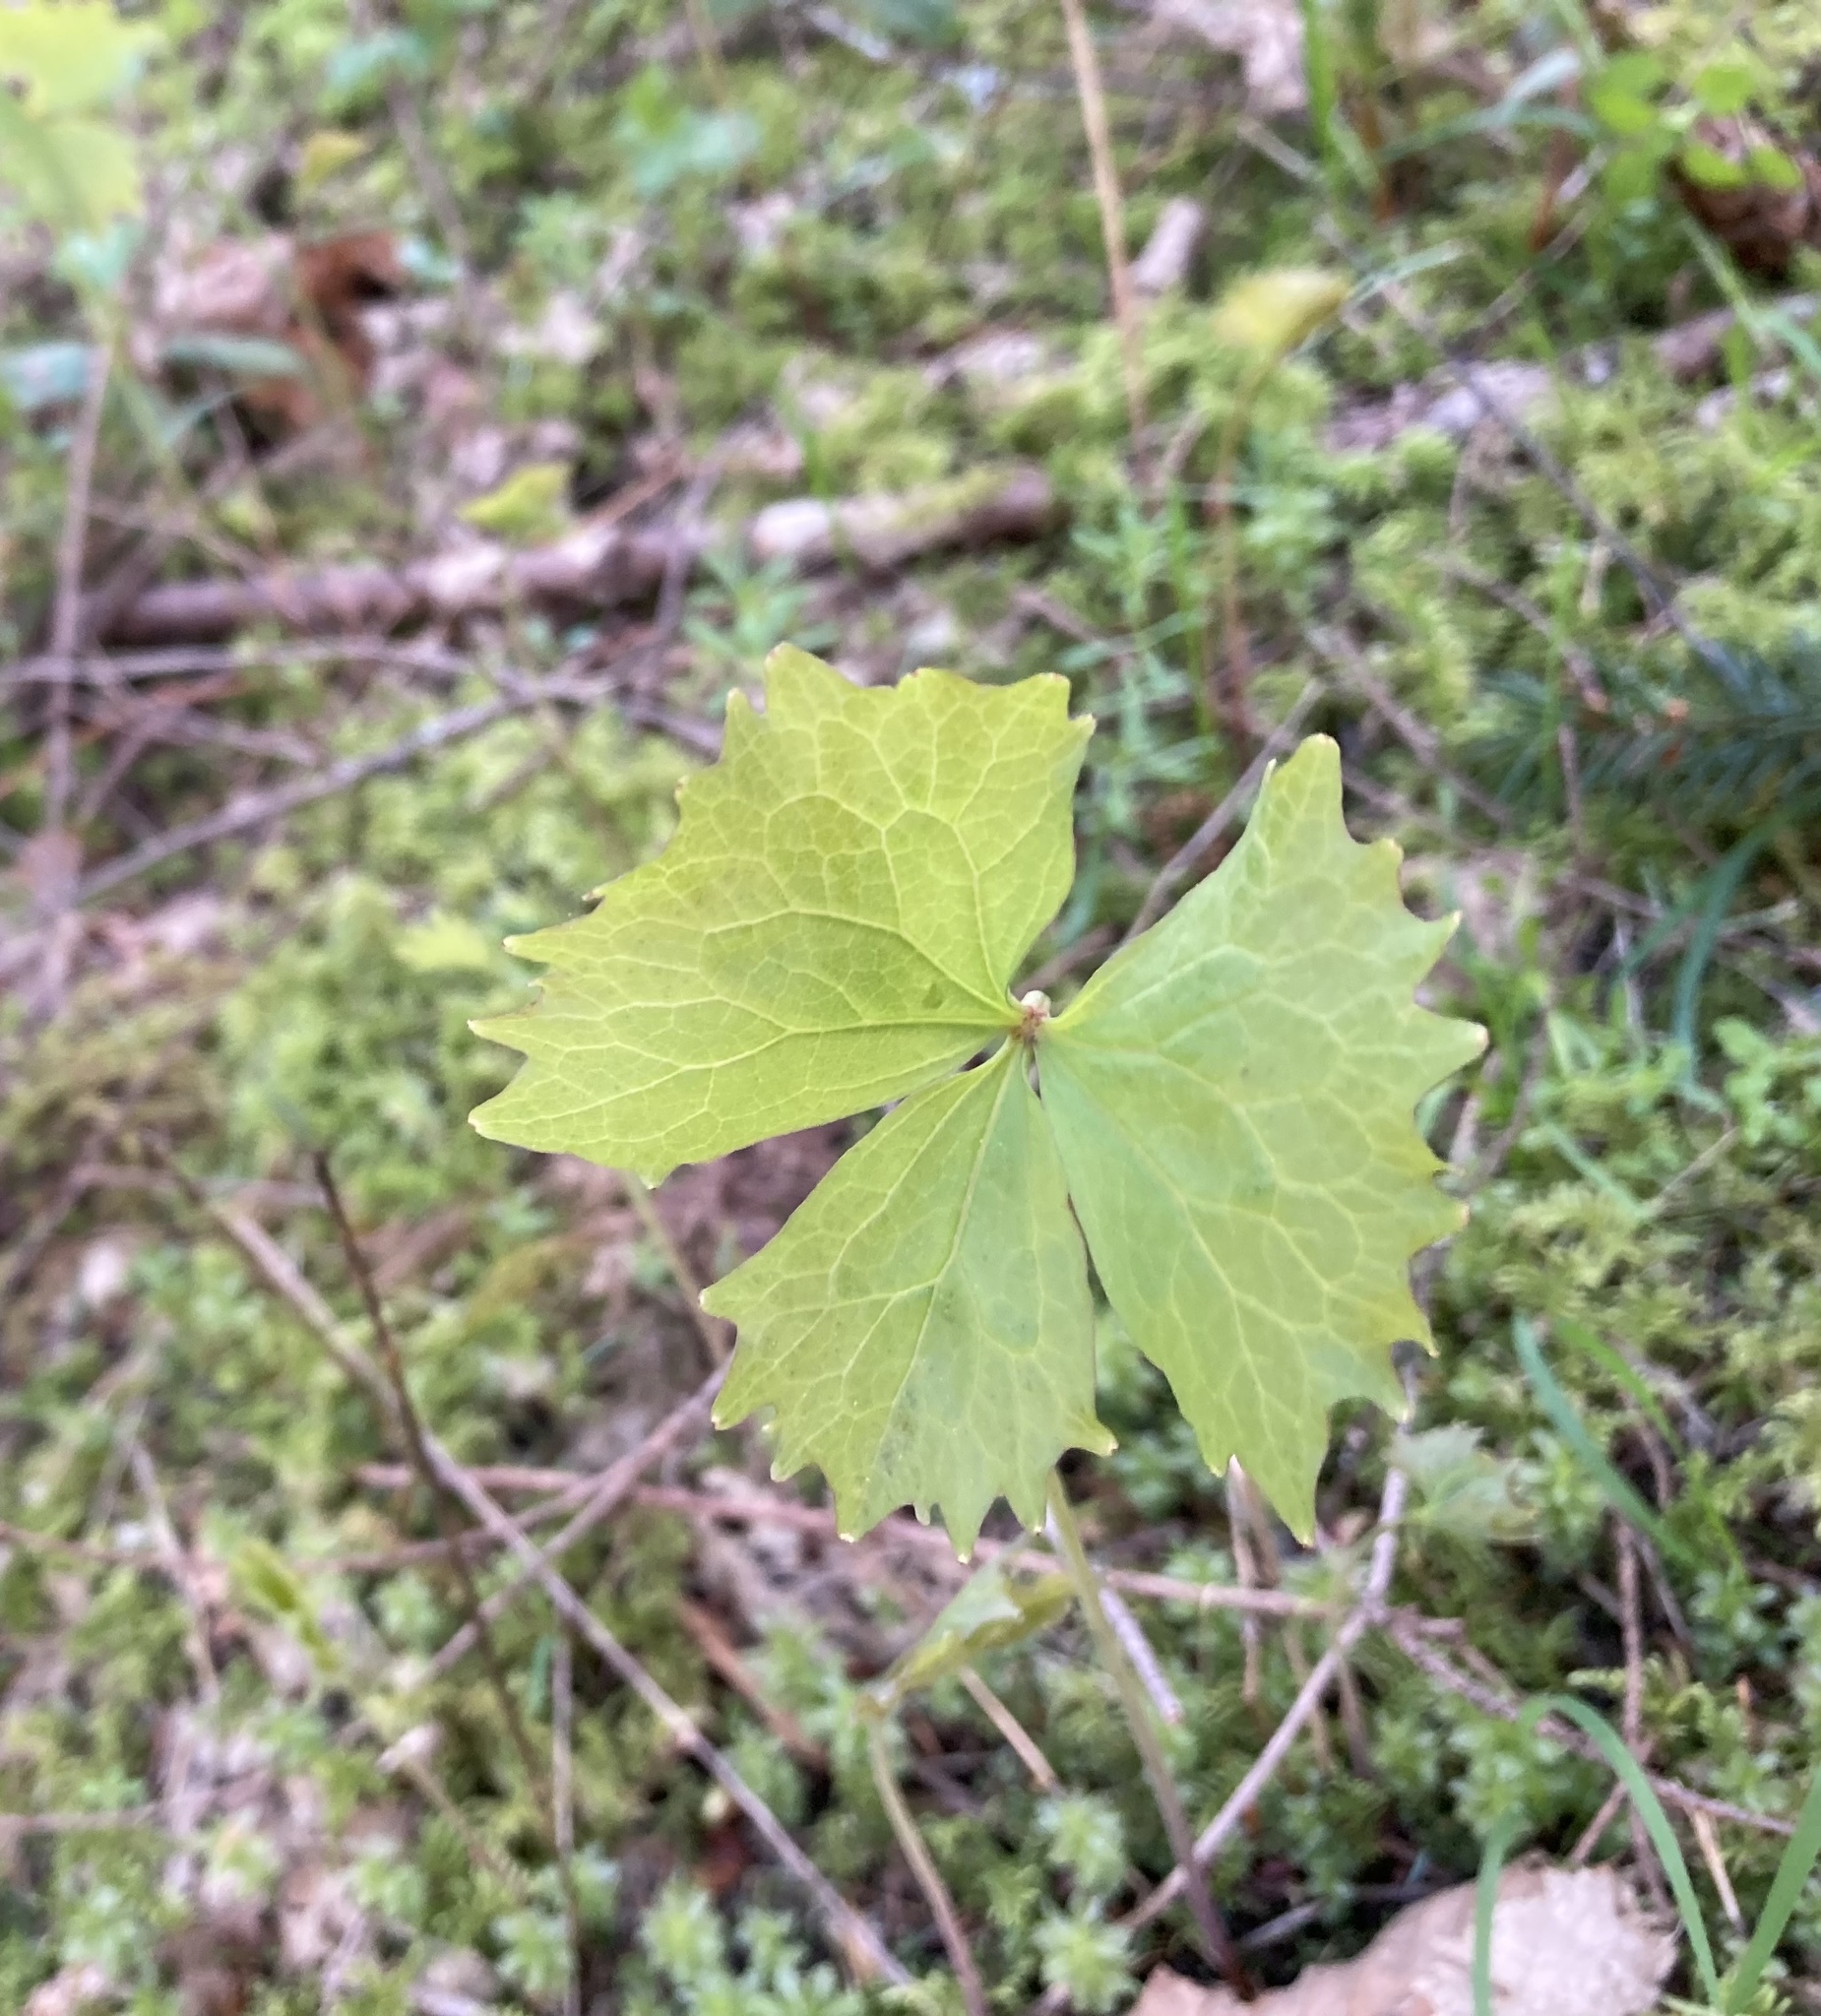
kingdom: Plantae
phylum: Tracheophyta
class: Magnoliopsida
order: Ranunculales
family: Berberidaceae
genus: Achlys
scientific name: Achlys californica
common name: California deer-foot
